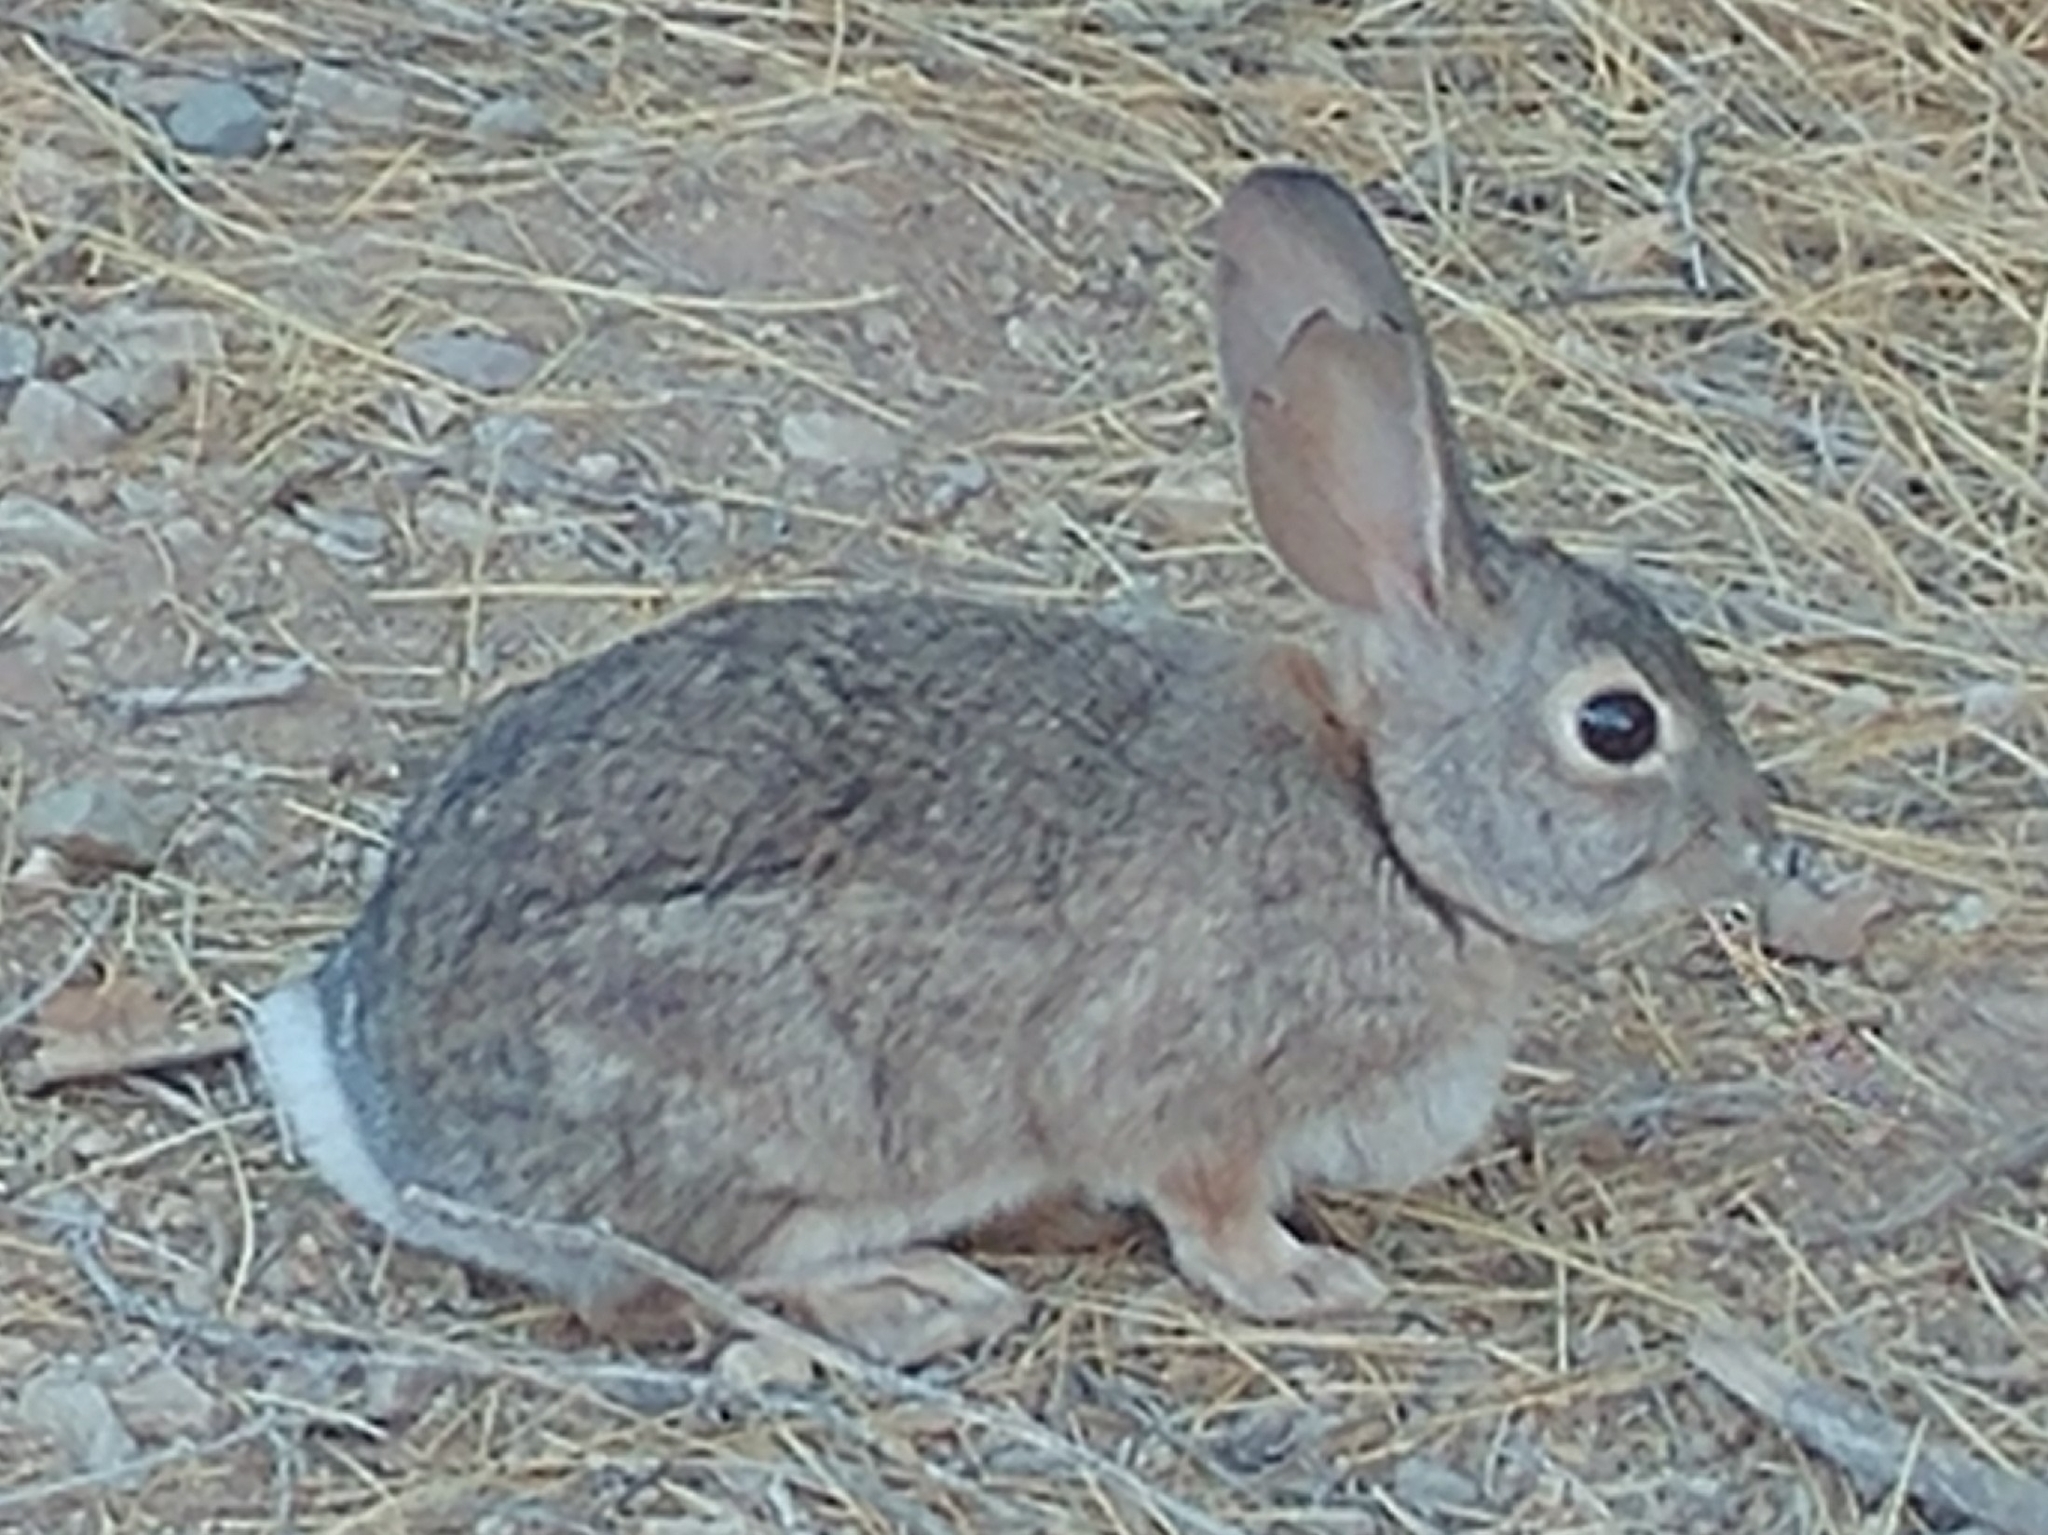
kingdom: Animalia
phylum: Chordata
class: Mammalia
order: Lagomorpha
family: Leporidae
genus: Sylvilagus
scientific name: Sylvilagus audubonii
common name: Desert cottontail
